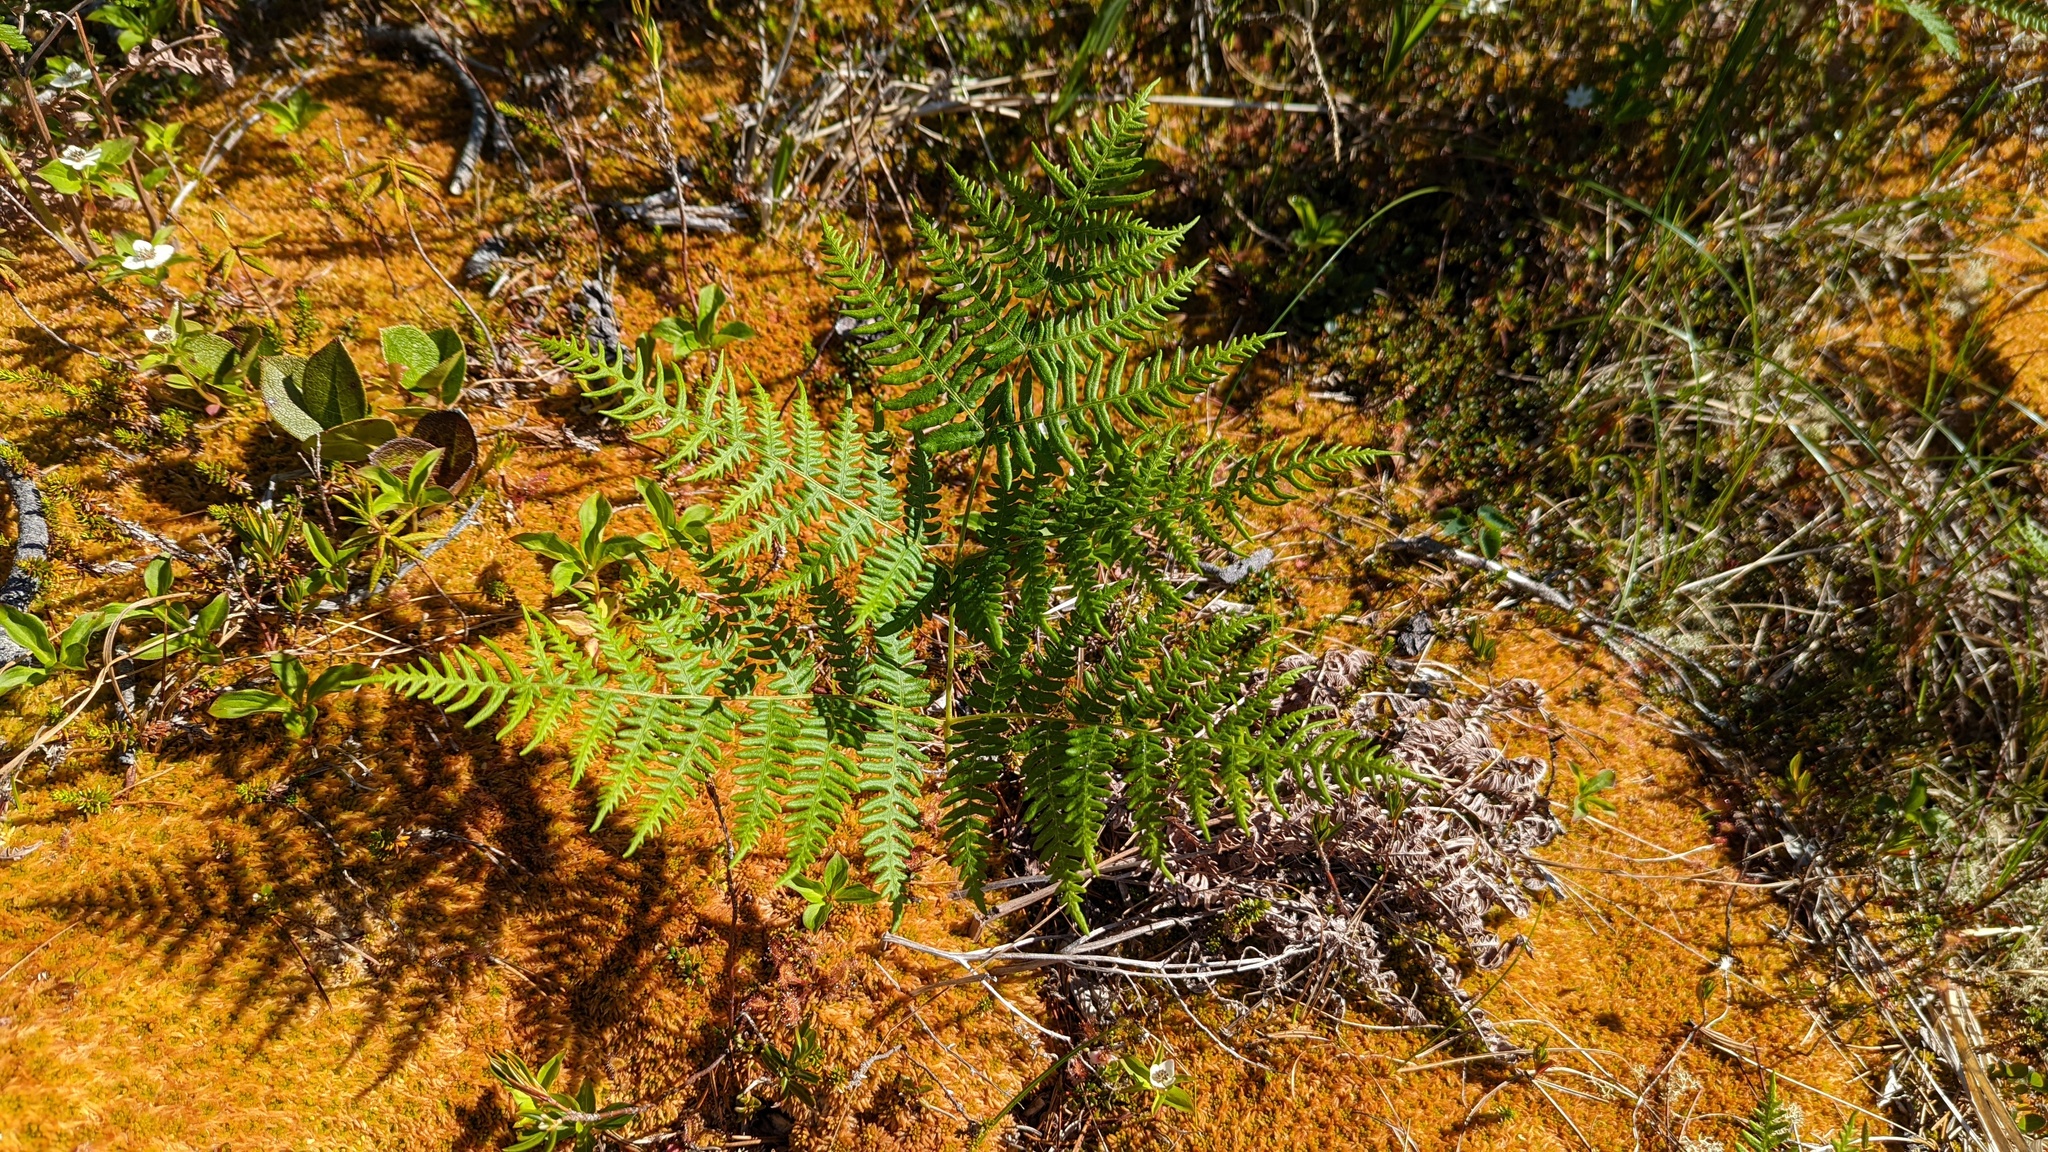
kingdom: Plantae
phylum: Tracheophyta
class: Polypodiopsida
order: Polypodiales
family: Dennstaedtiaceae
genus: Pteridium
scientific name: Pteridium aquilinum
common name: Bracken
